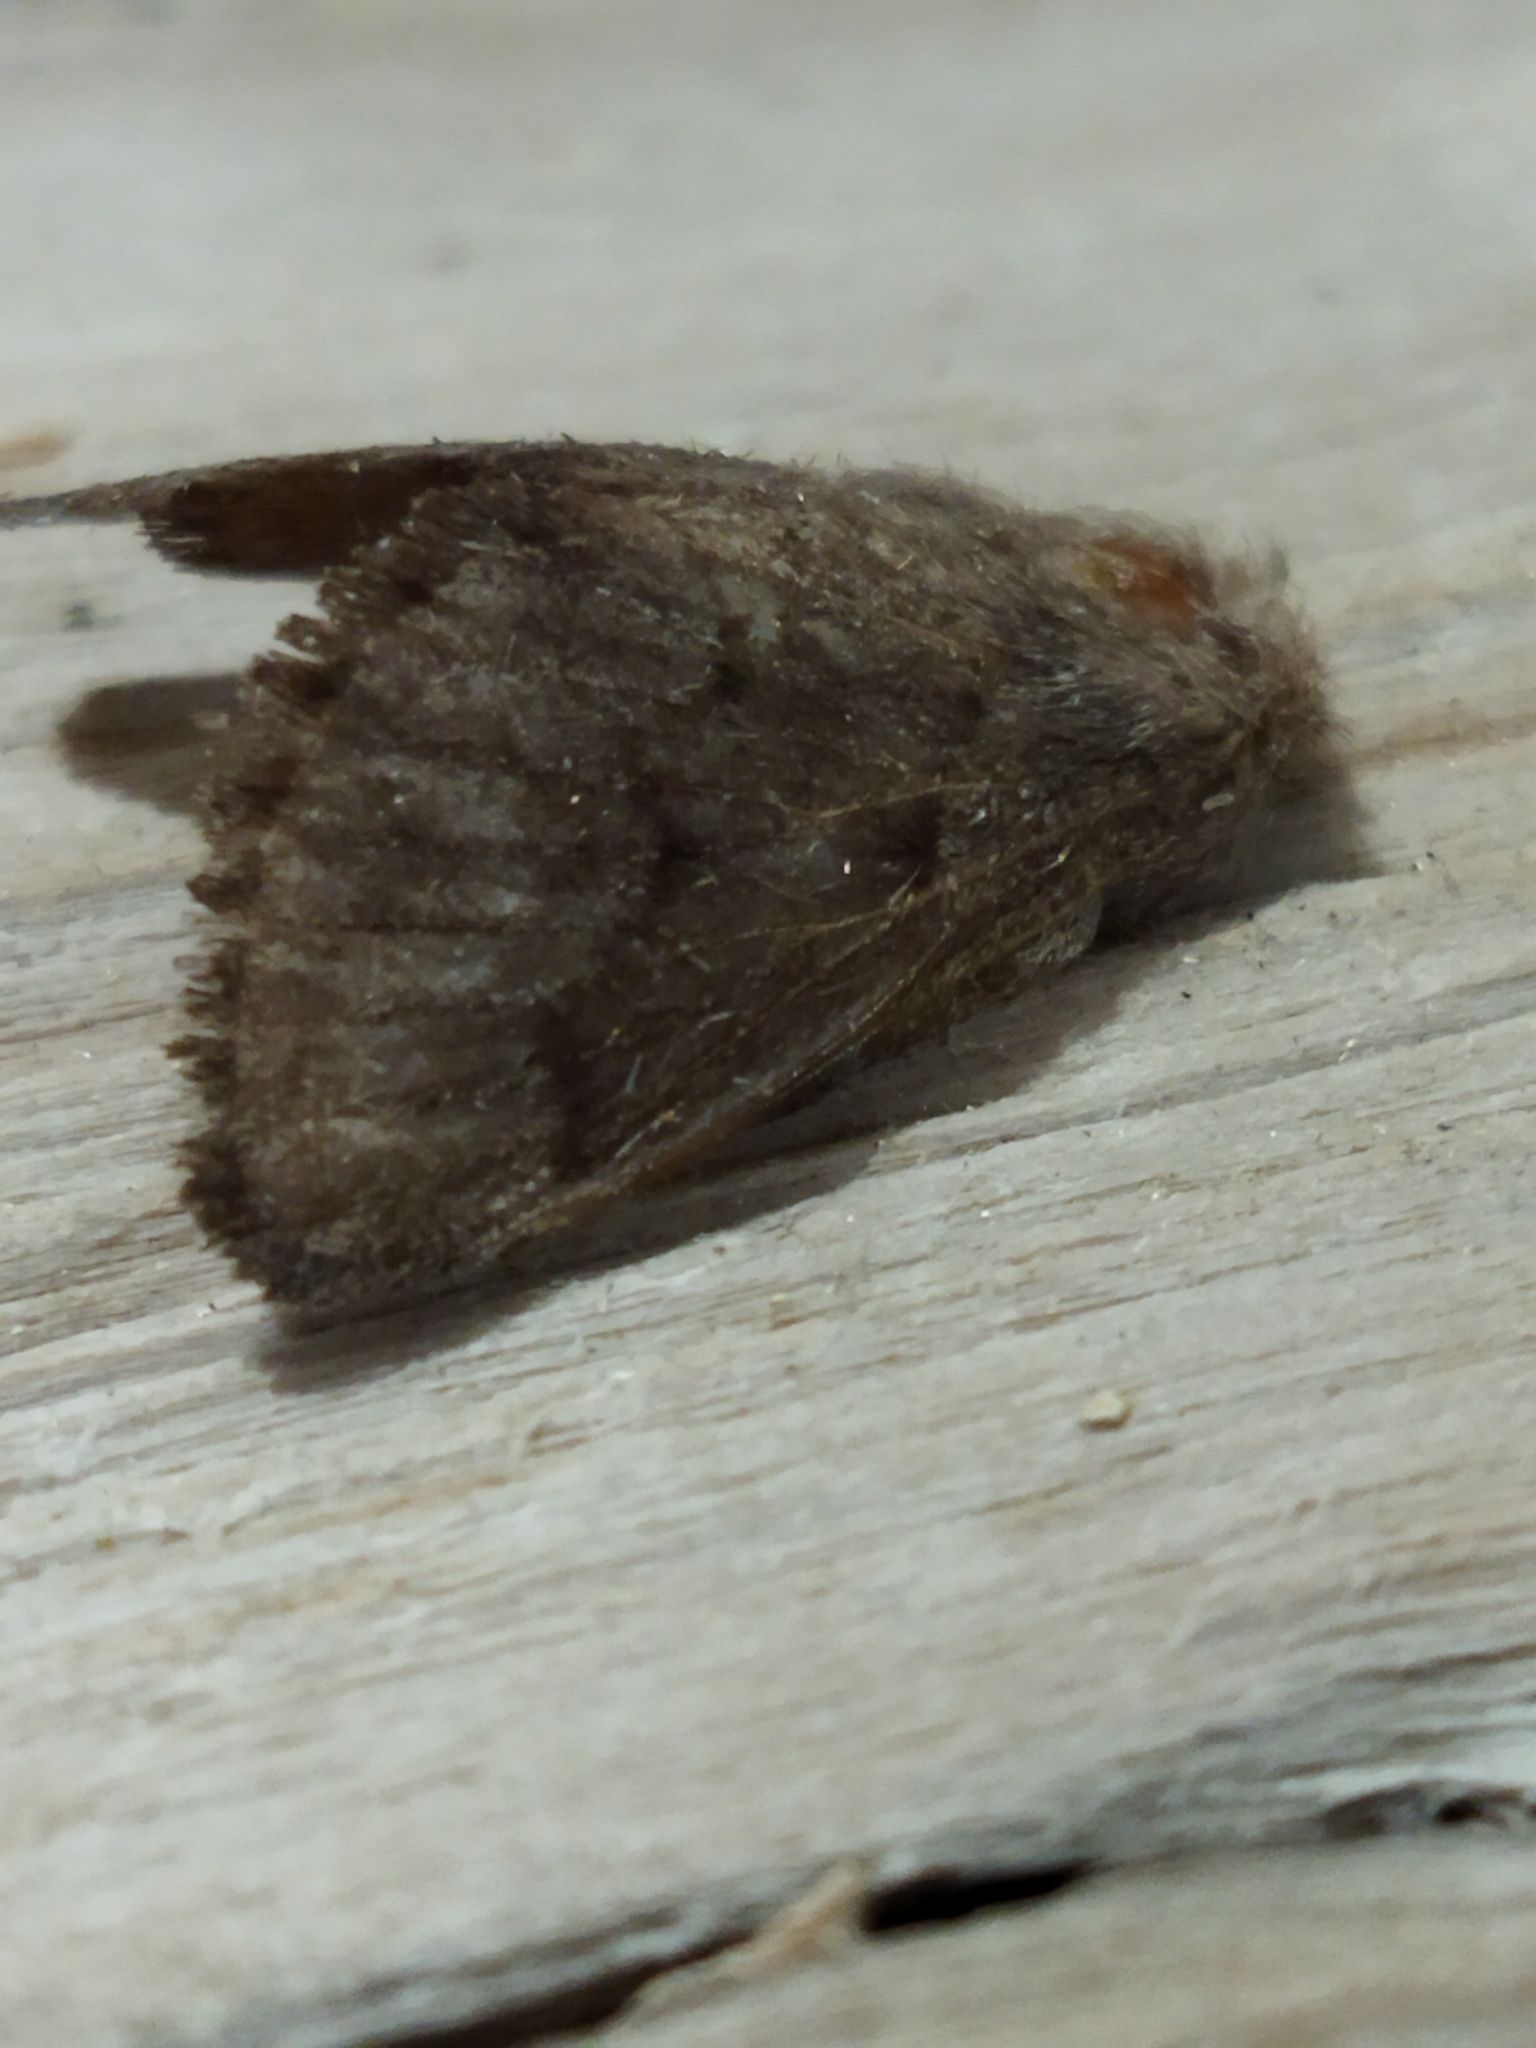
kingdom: Animalia
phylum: Arthropoda
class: Insecta
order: Lepidoptera
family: Lasiocampidae
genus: Trichiura
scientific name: Trichiura crataegi
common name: Pale eggar
